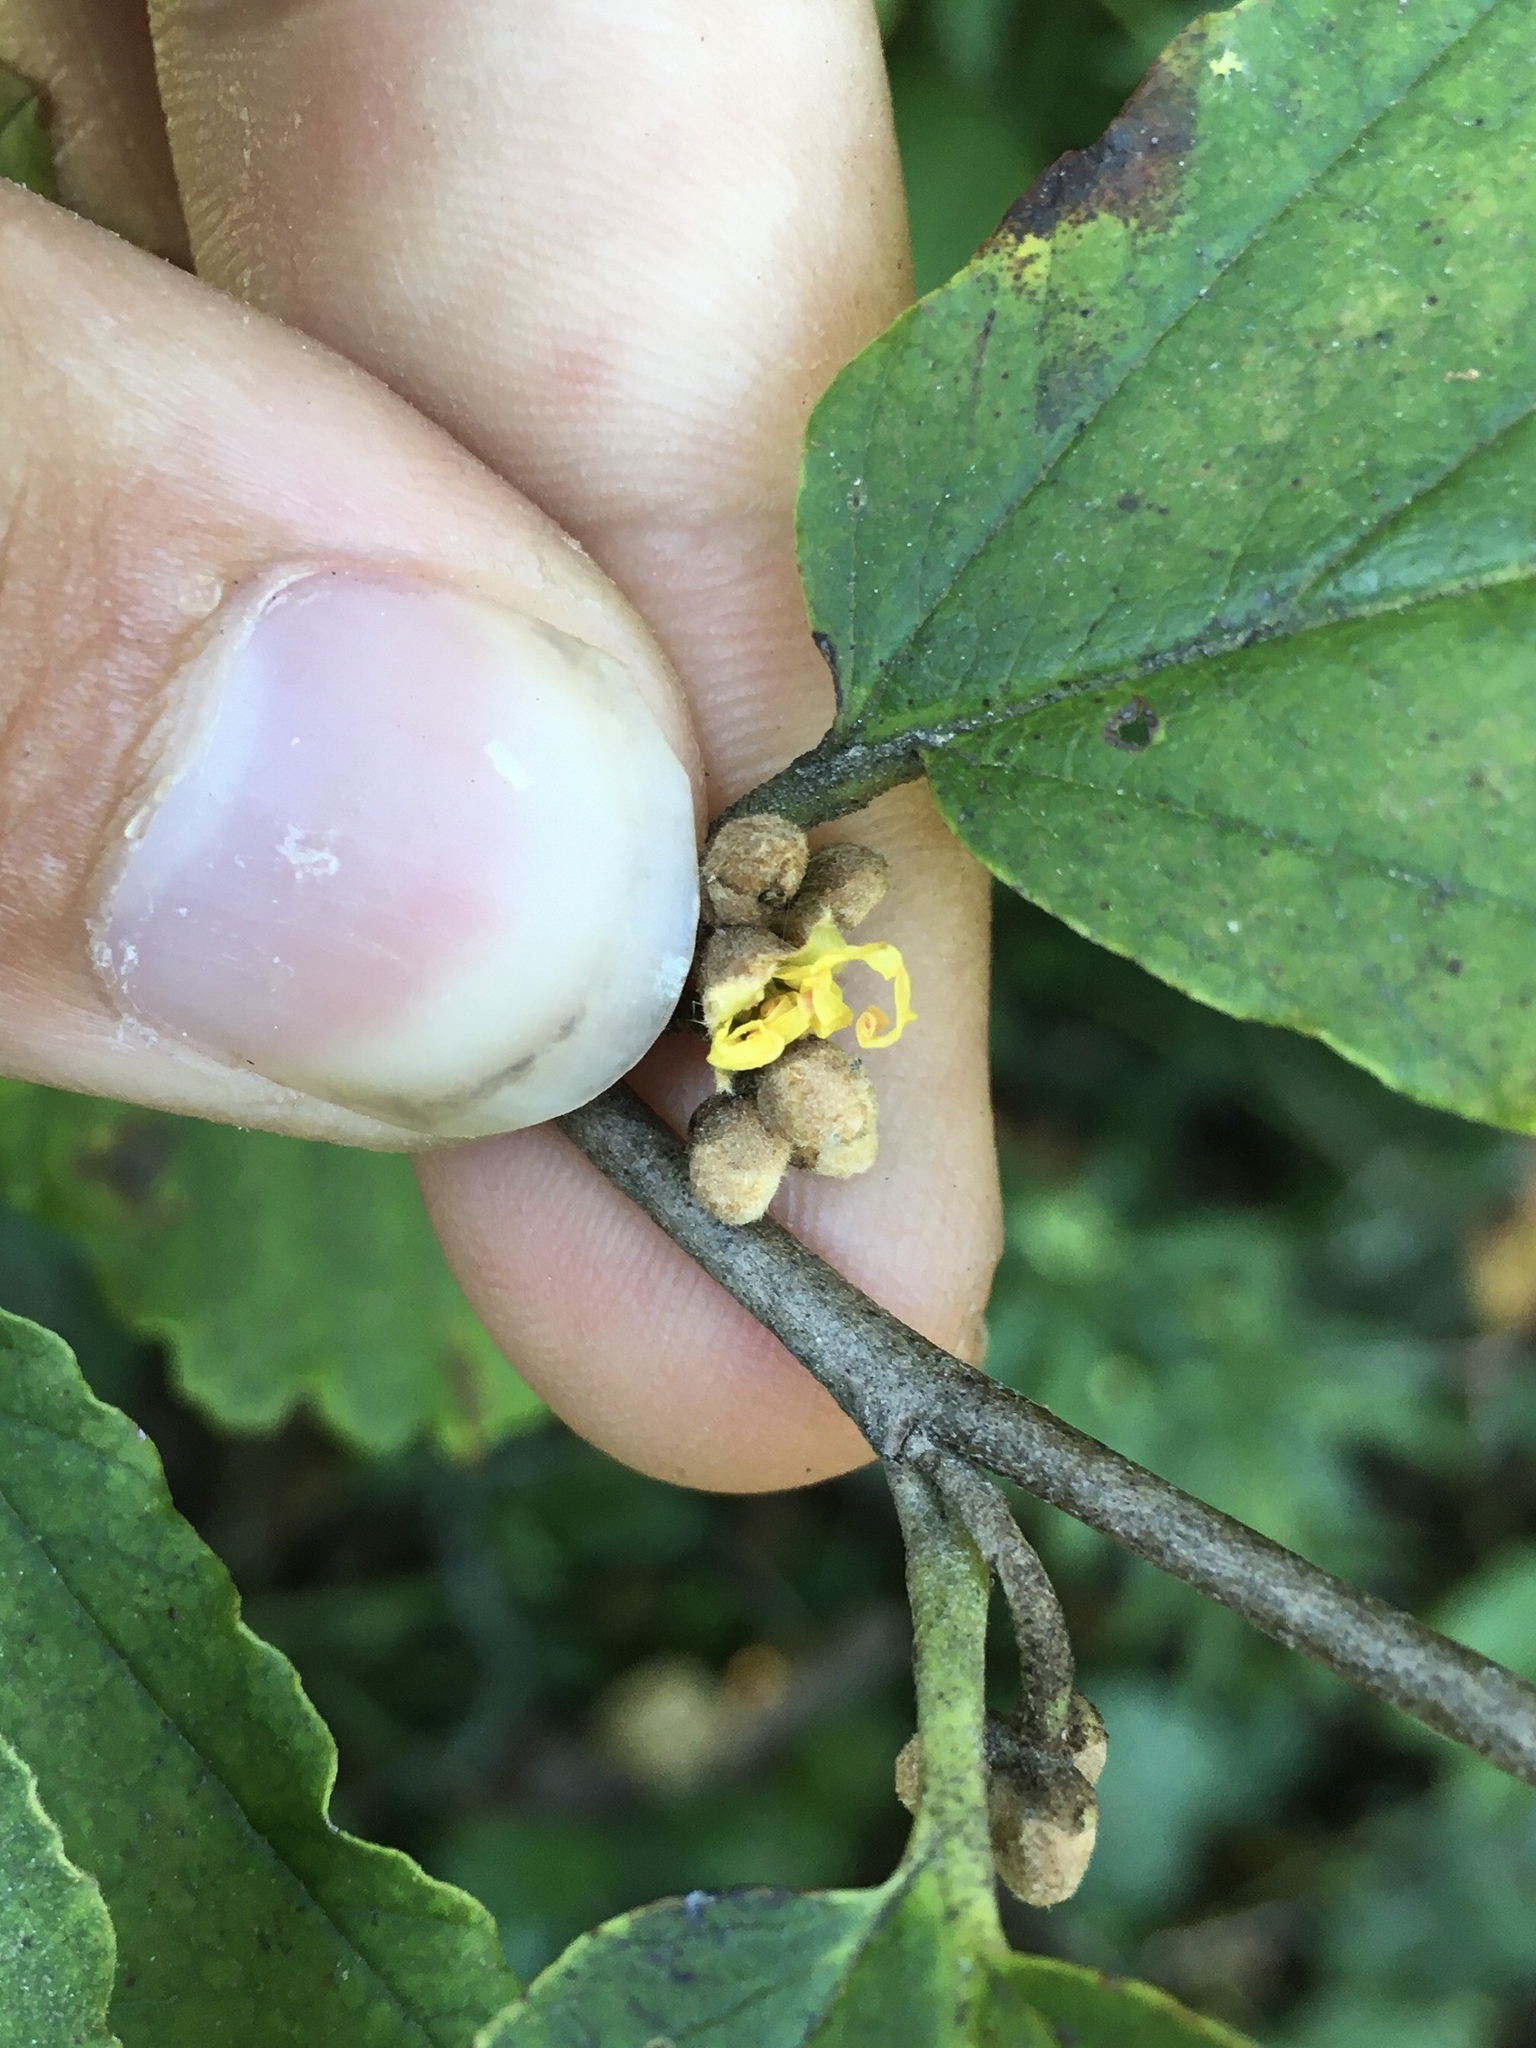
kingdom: Plantae
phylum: Tracheophyta
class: Magnoliopsida
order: Saxifragales
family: Hamamelidaceae
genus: Hamamelis
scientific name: Hamamelis virginiana
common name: Witch-hazel
